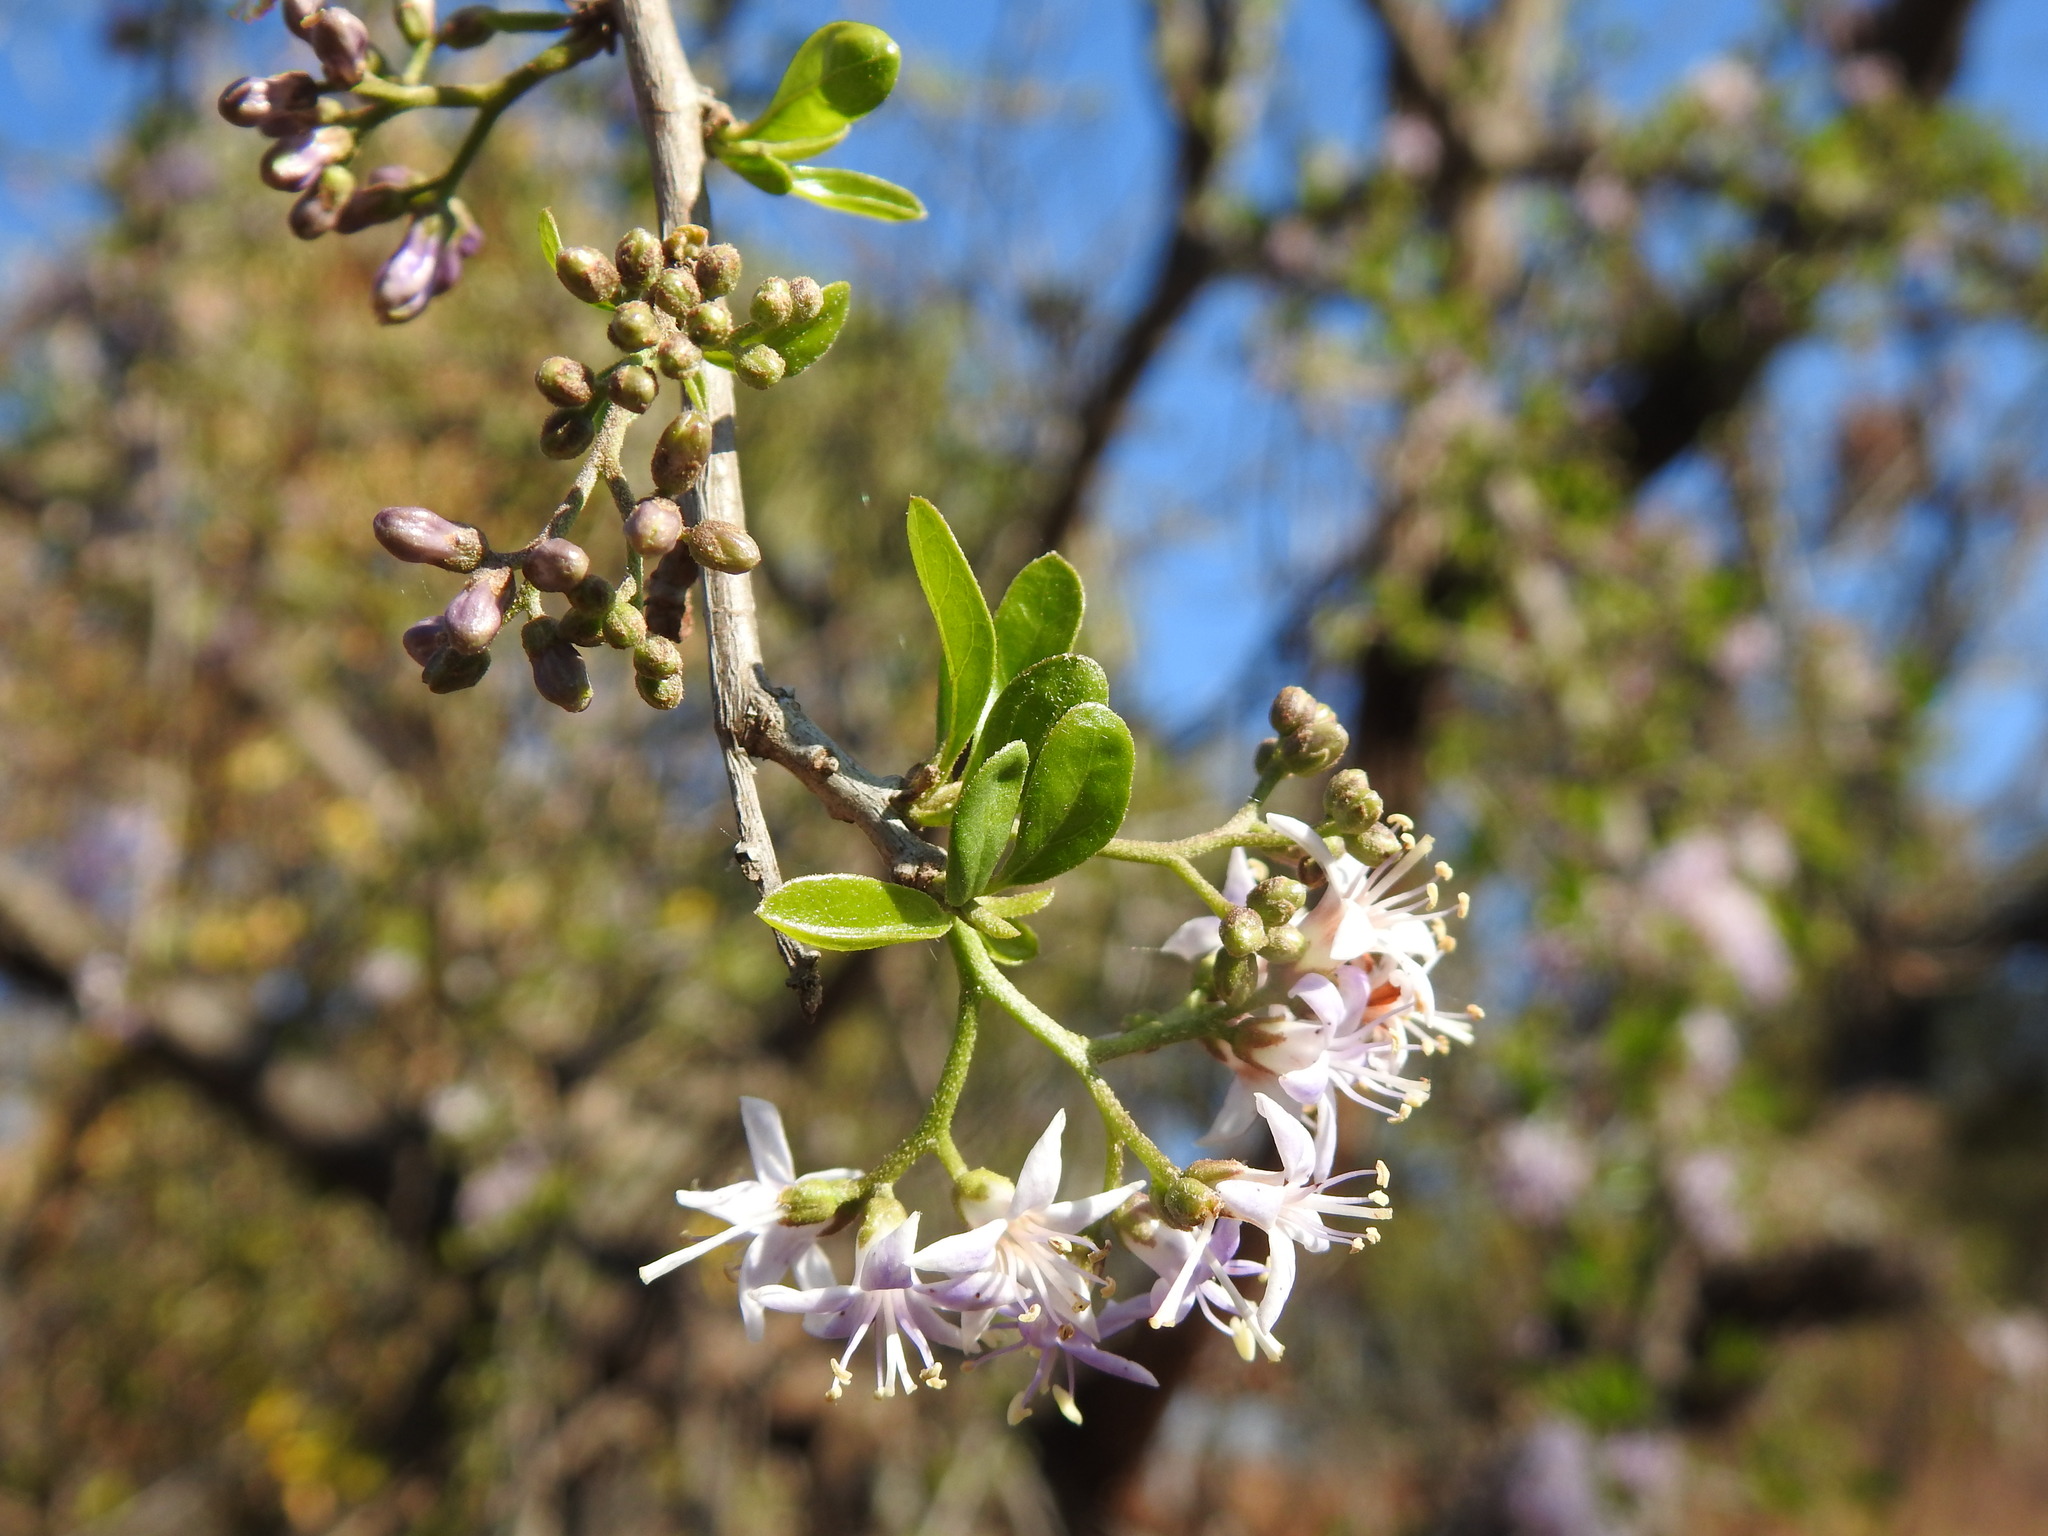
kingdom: Plantae
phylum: Tracheophyta
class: Magnoliopsida
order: Boraginales
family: Ehretiaceae
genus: Ehretia
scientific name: Ehretia rigida
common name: Cape lilac
